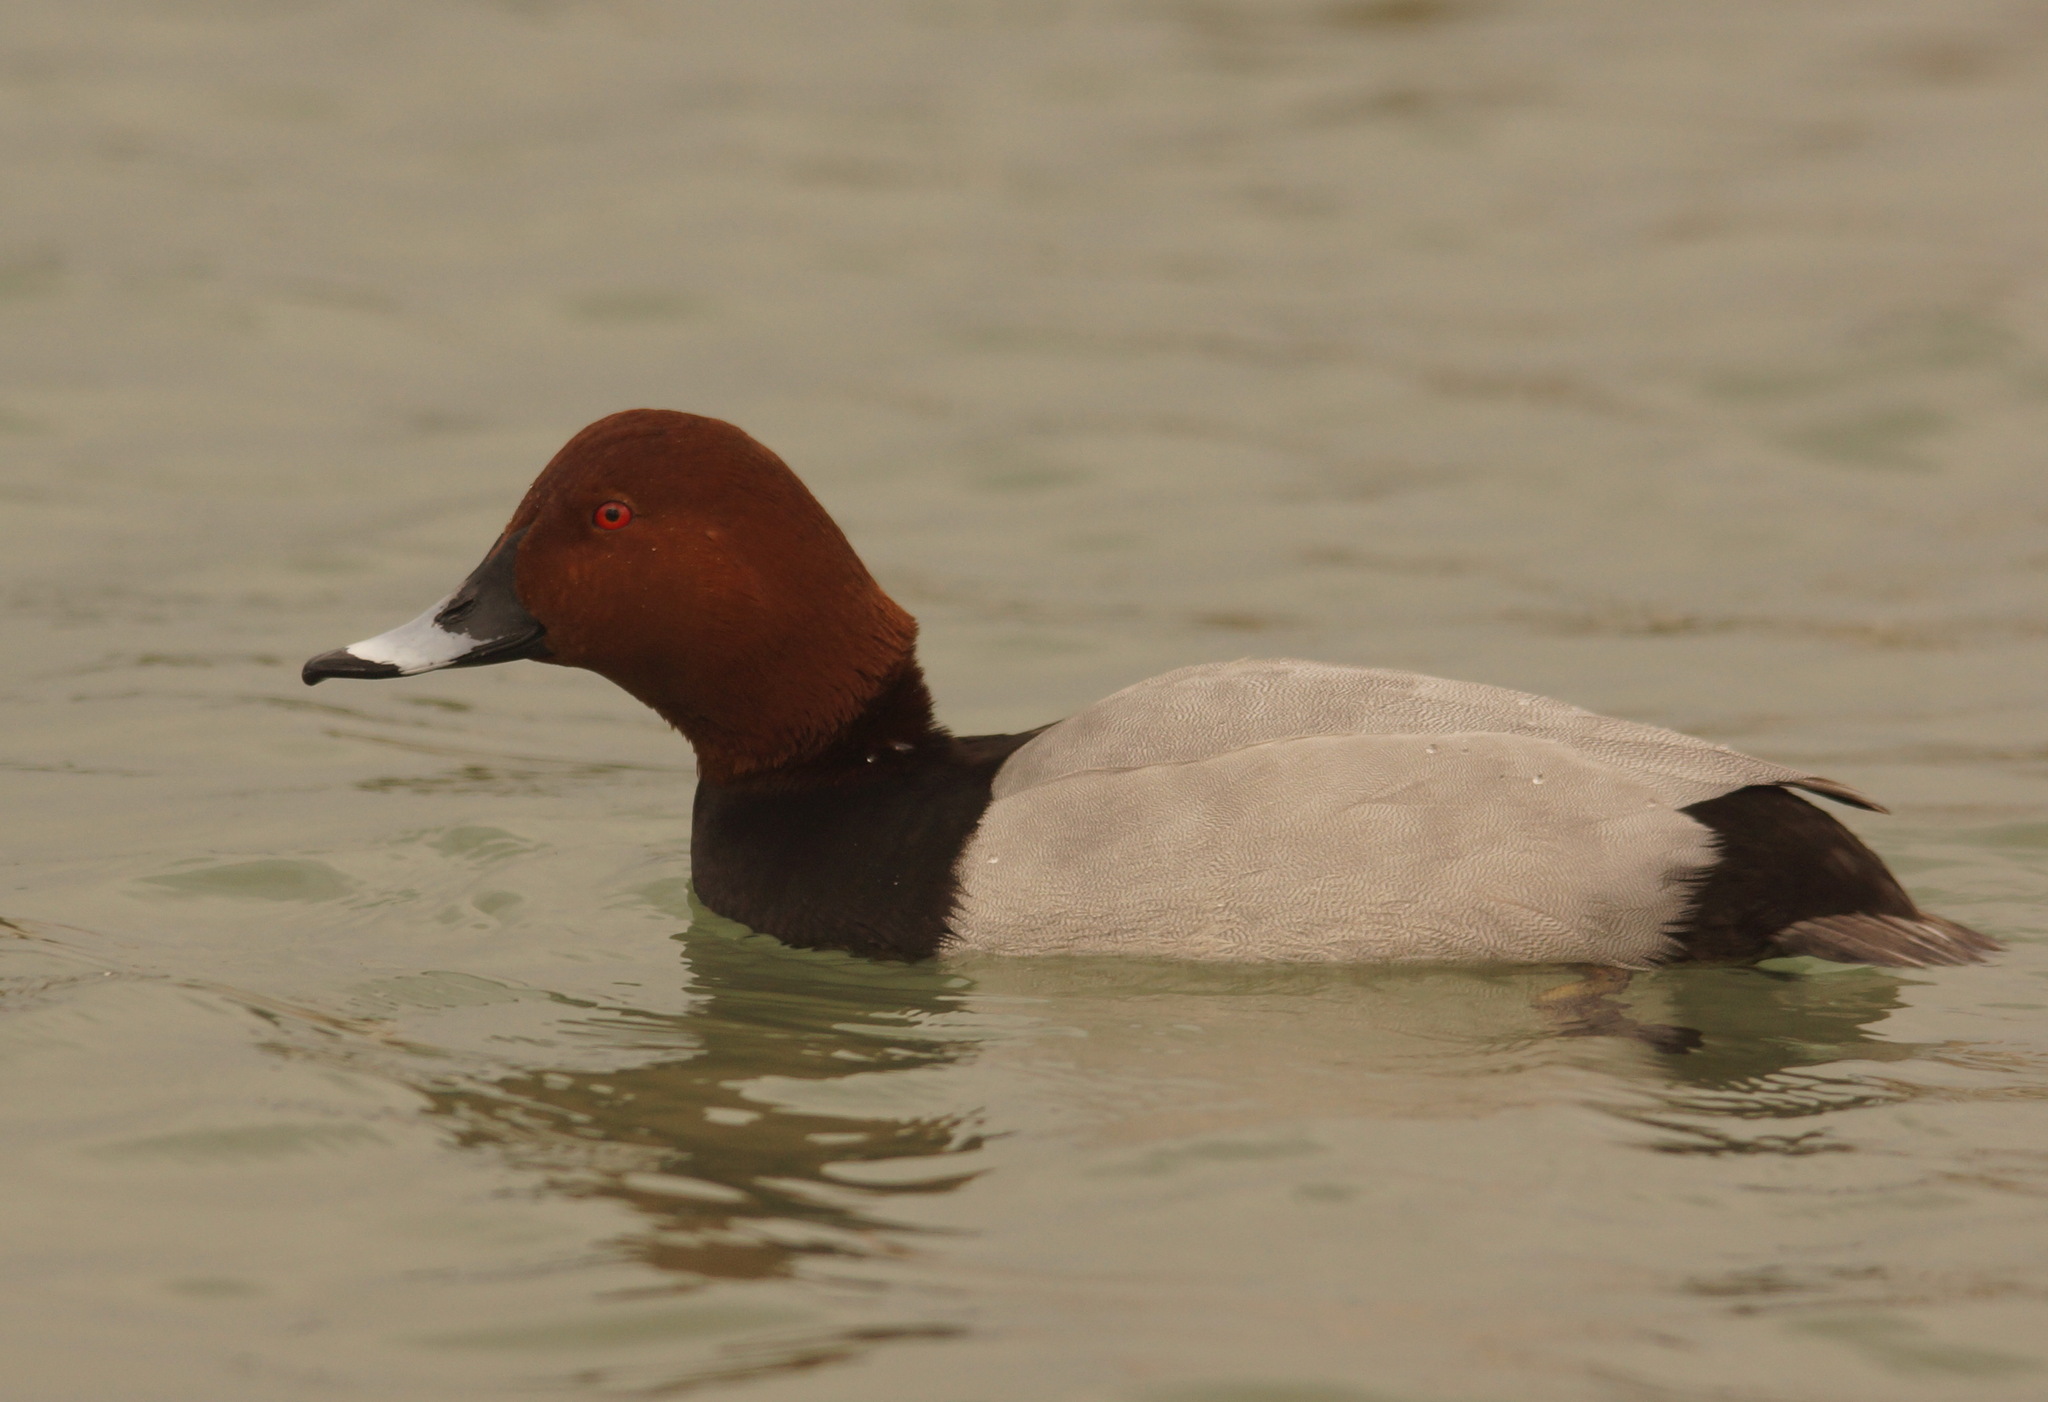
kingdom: Animalia
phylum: Chordata
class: Aves
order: Anseriformes
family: Anatidae
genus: Aythya
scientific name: Aythya ferina
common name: Common pochard
